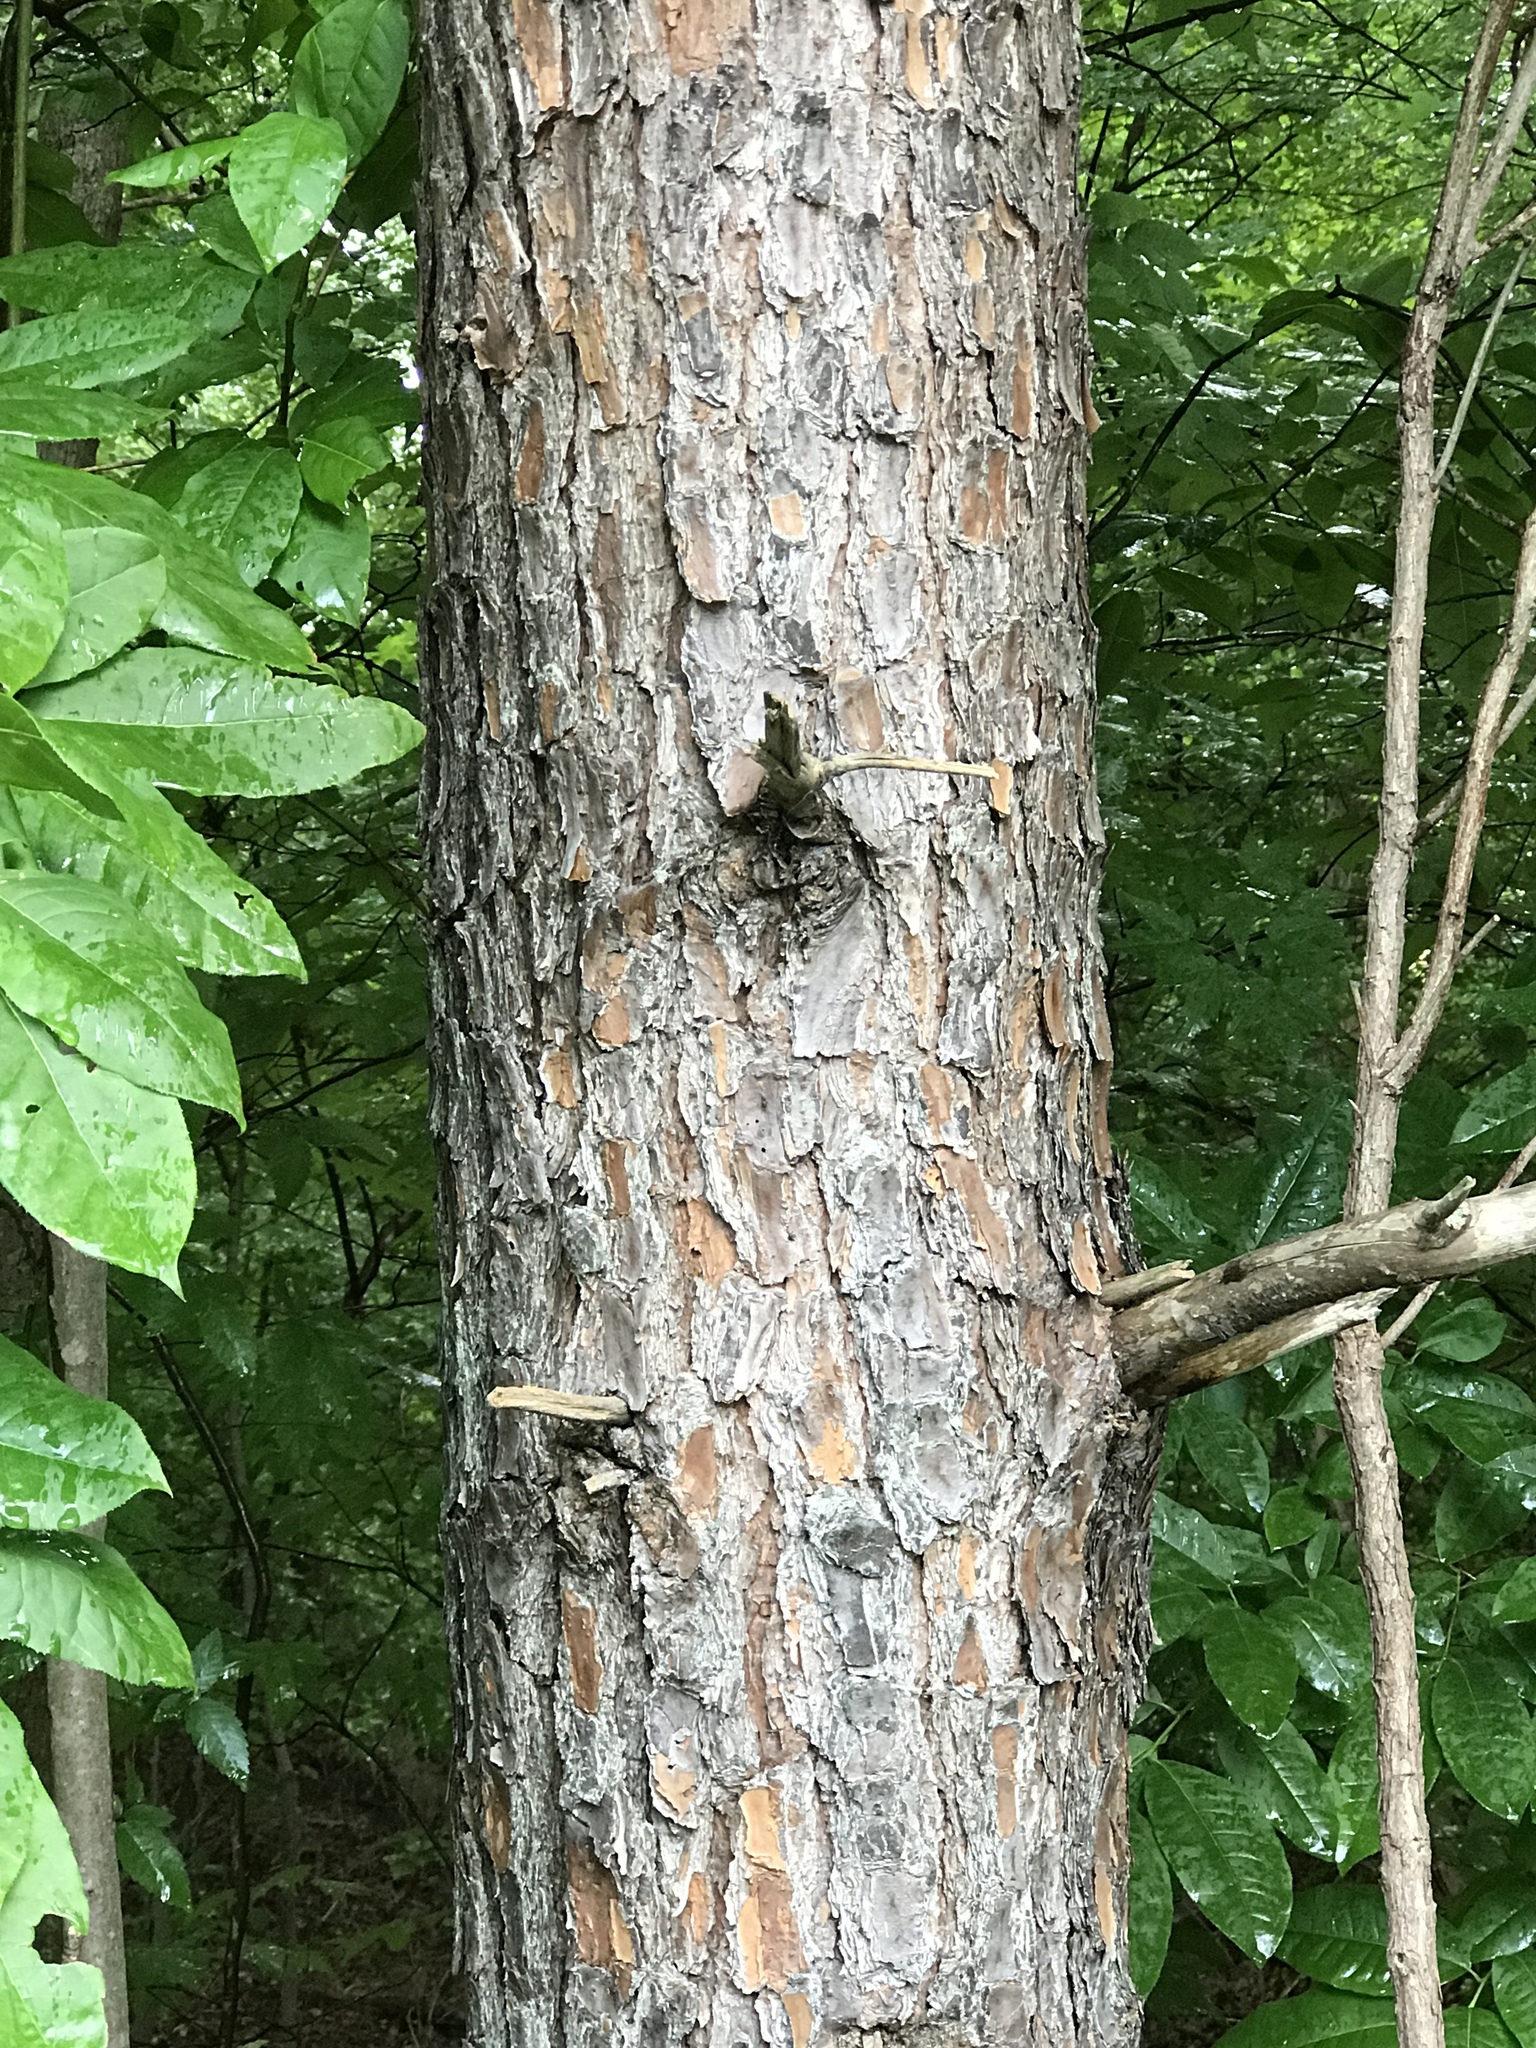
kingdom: Plantae
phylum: Tracheophyta
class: Pinopsida
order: Pinales
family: Pinaceae
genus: Pinus
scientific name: Pinus virginiana
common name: Scrub pine
